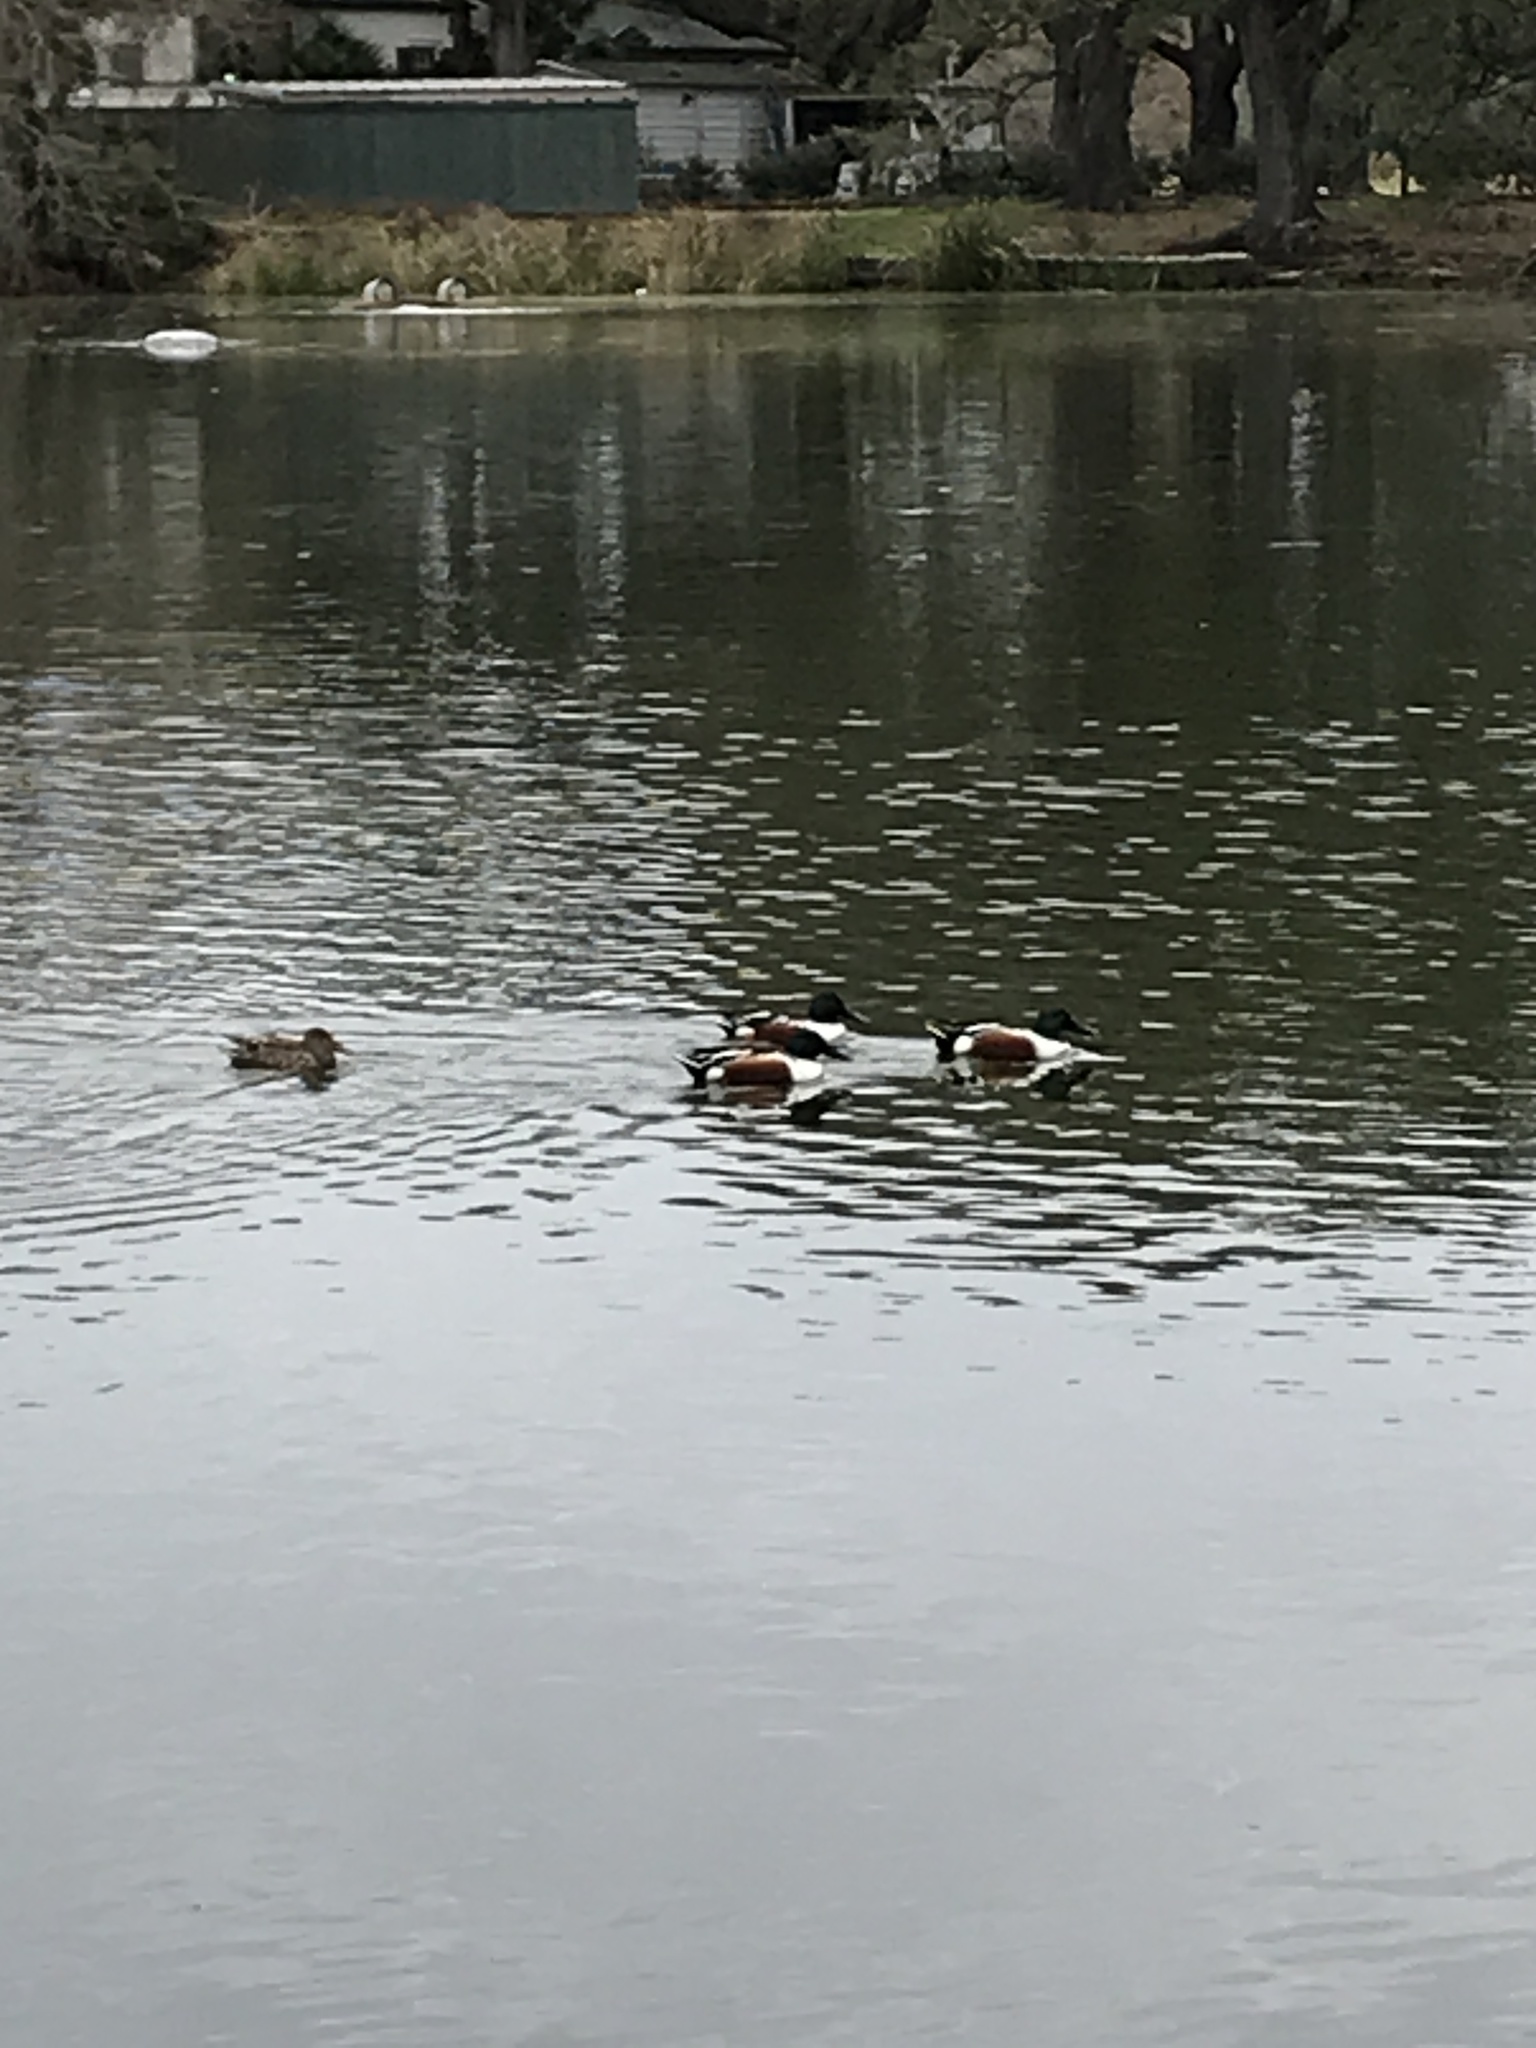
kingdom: Animalia
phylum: Chordata
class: Aves
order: Anseriformes
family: Anatidae
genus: Spatula
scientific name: Spatula clypeata
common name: Northern shoveler
